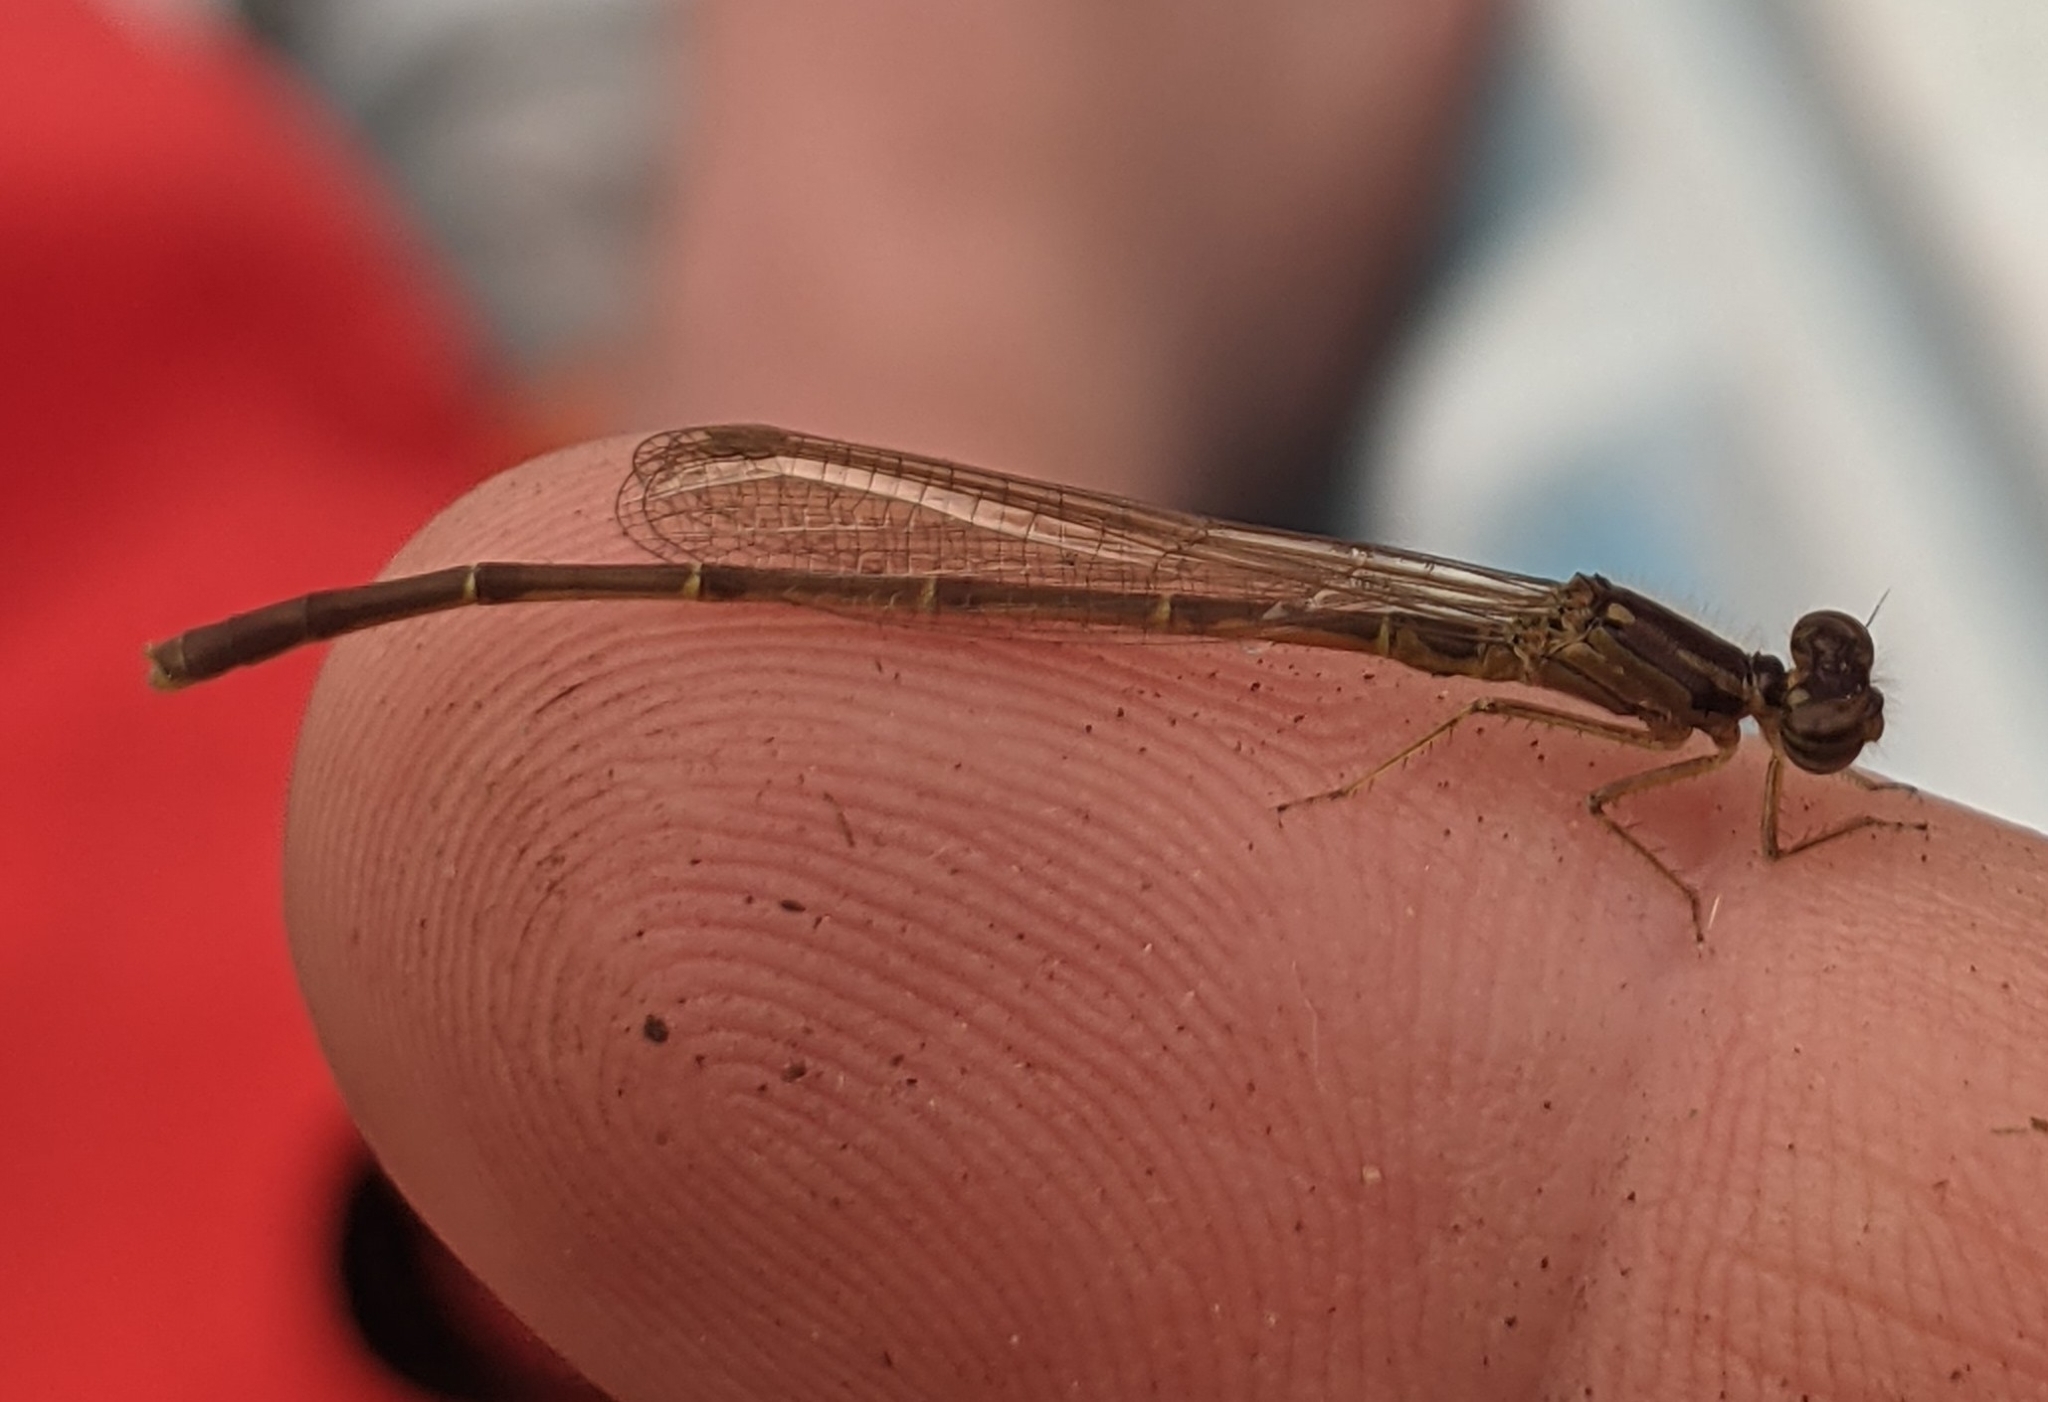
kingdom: Animalia
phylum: Arthropoda
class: Insecta
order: Odonata
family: Coenagrionidae
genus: Ischnura
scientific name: Ischnura posita
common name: Fragile forktail
